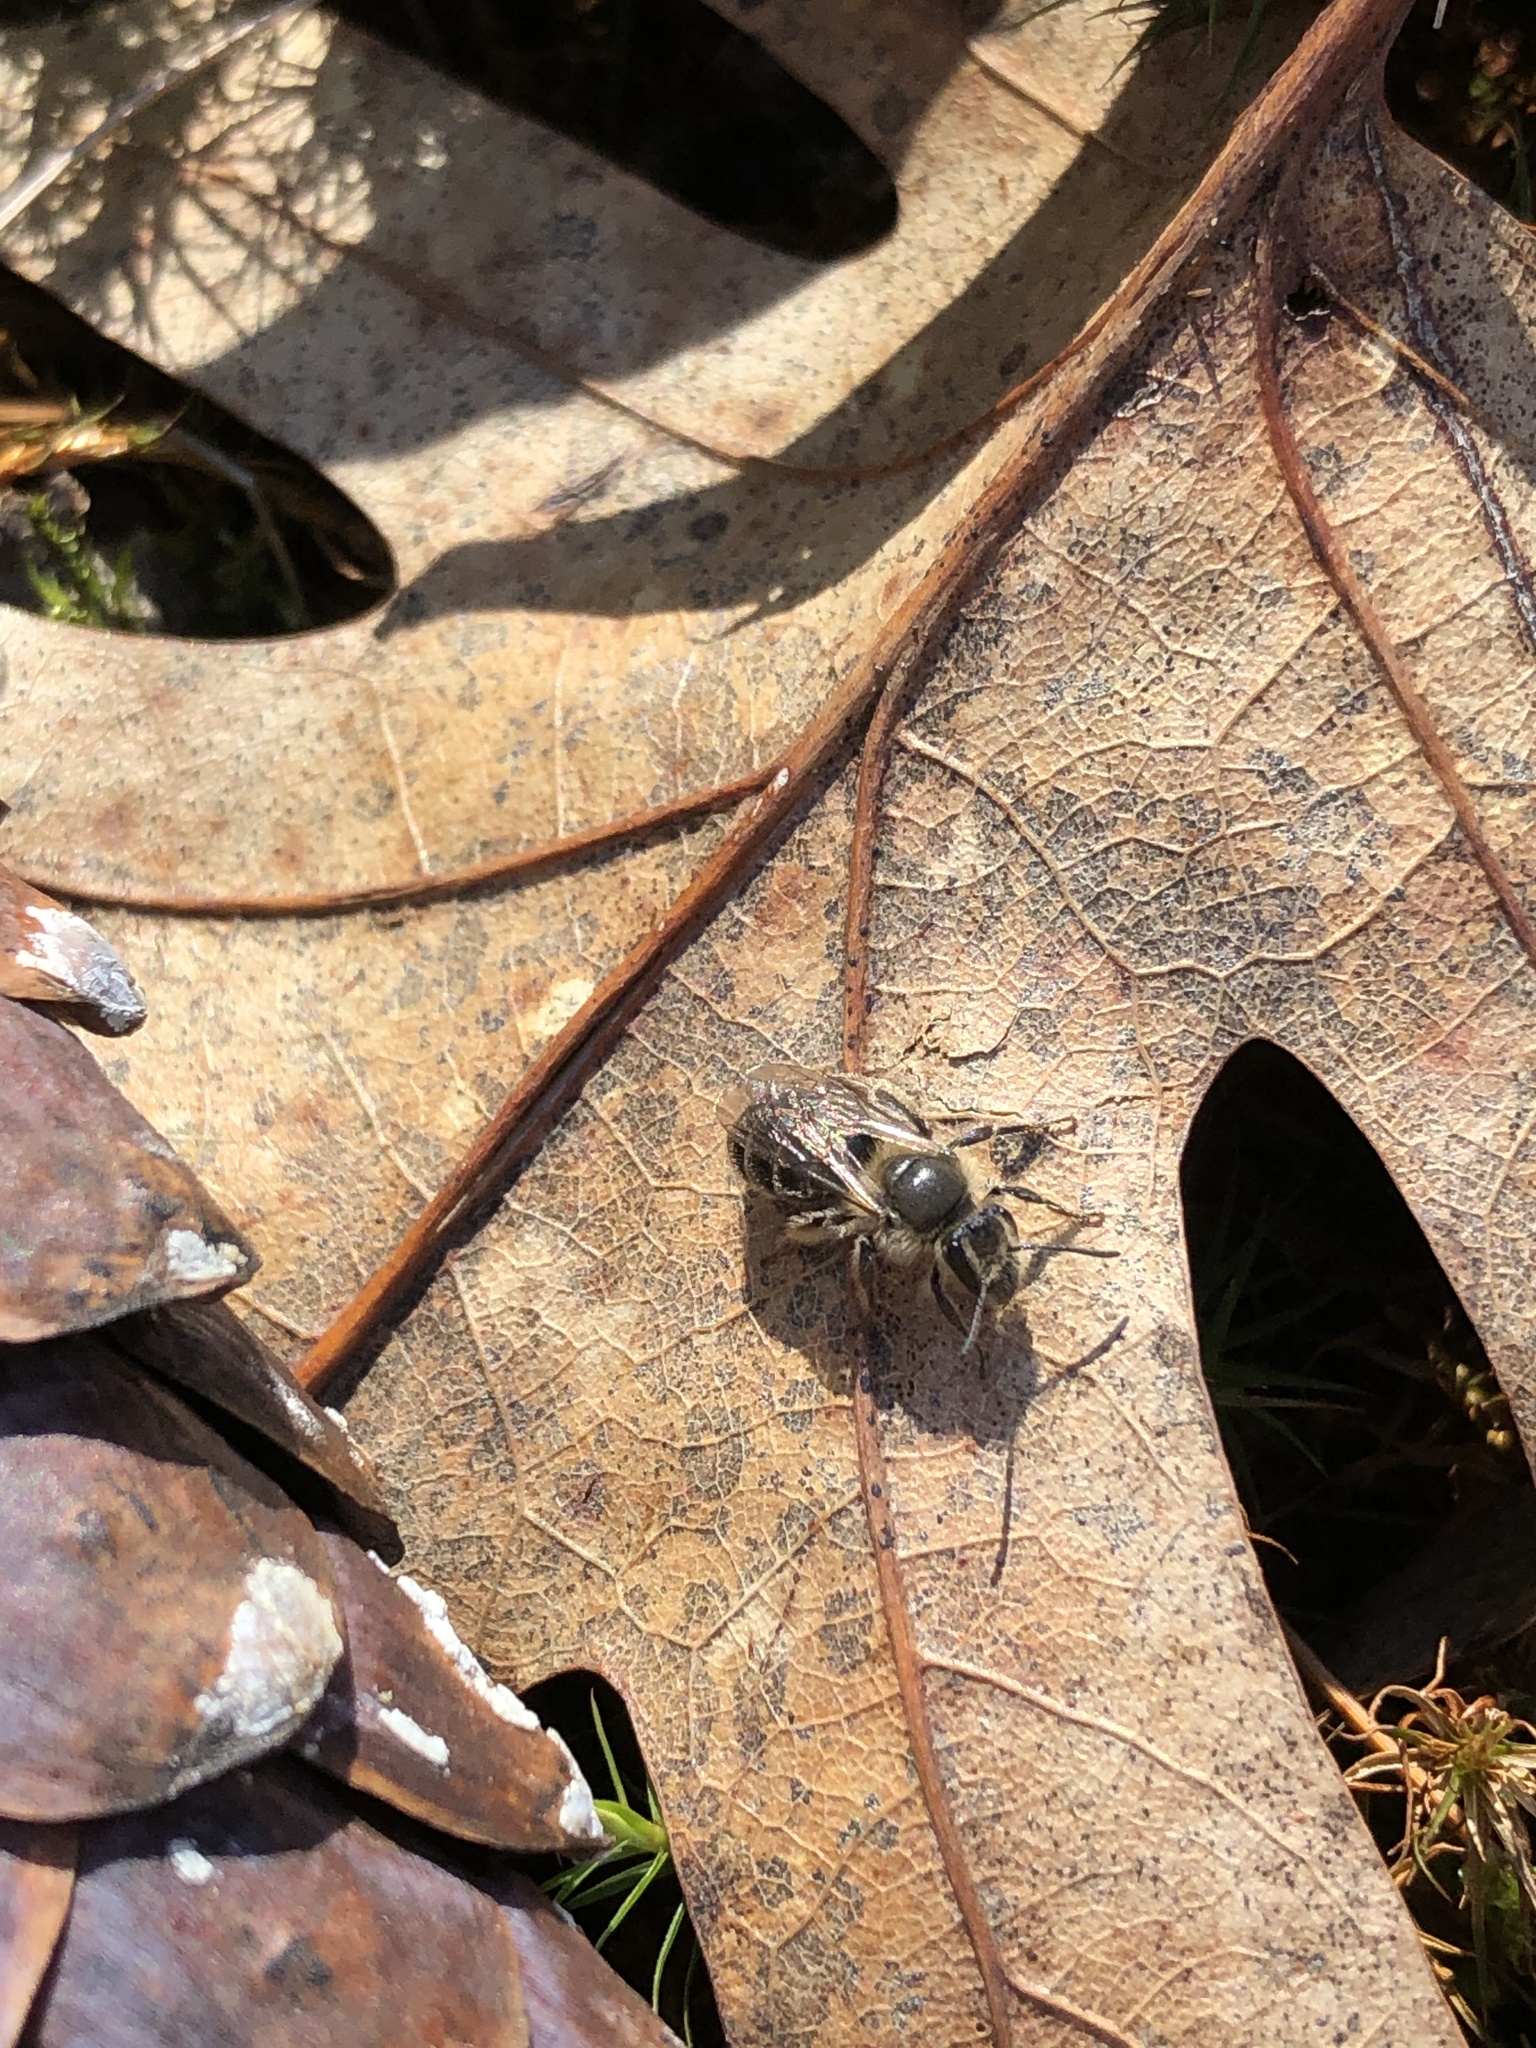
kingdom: Animalia
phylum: Arthropoda
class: Insecta
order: Hymenoptera
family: Andrenidae
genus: Andrena
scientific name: Andrena bradleyi
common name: Bradley's mining bee
